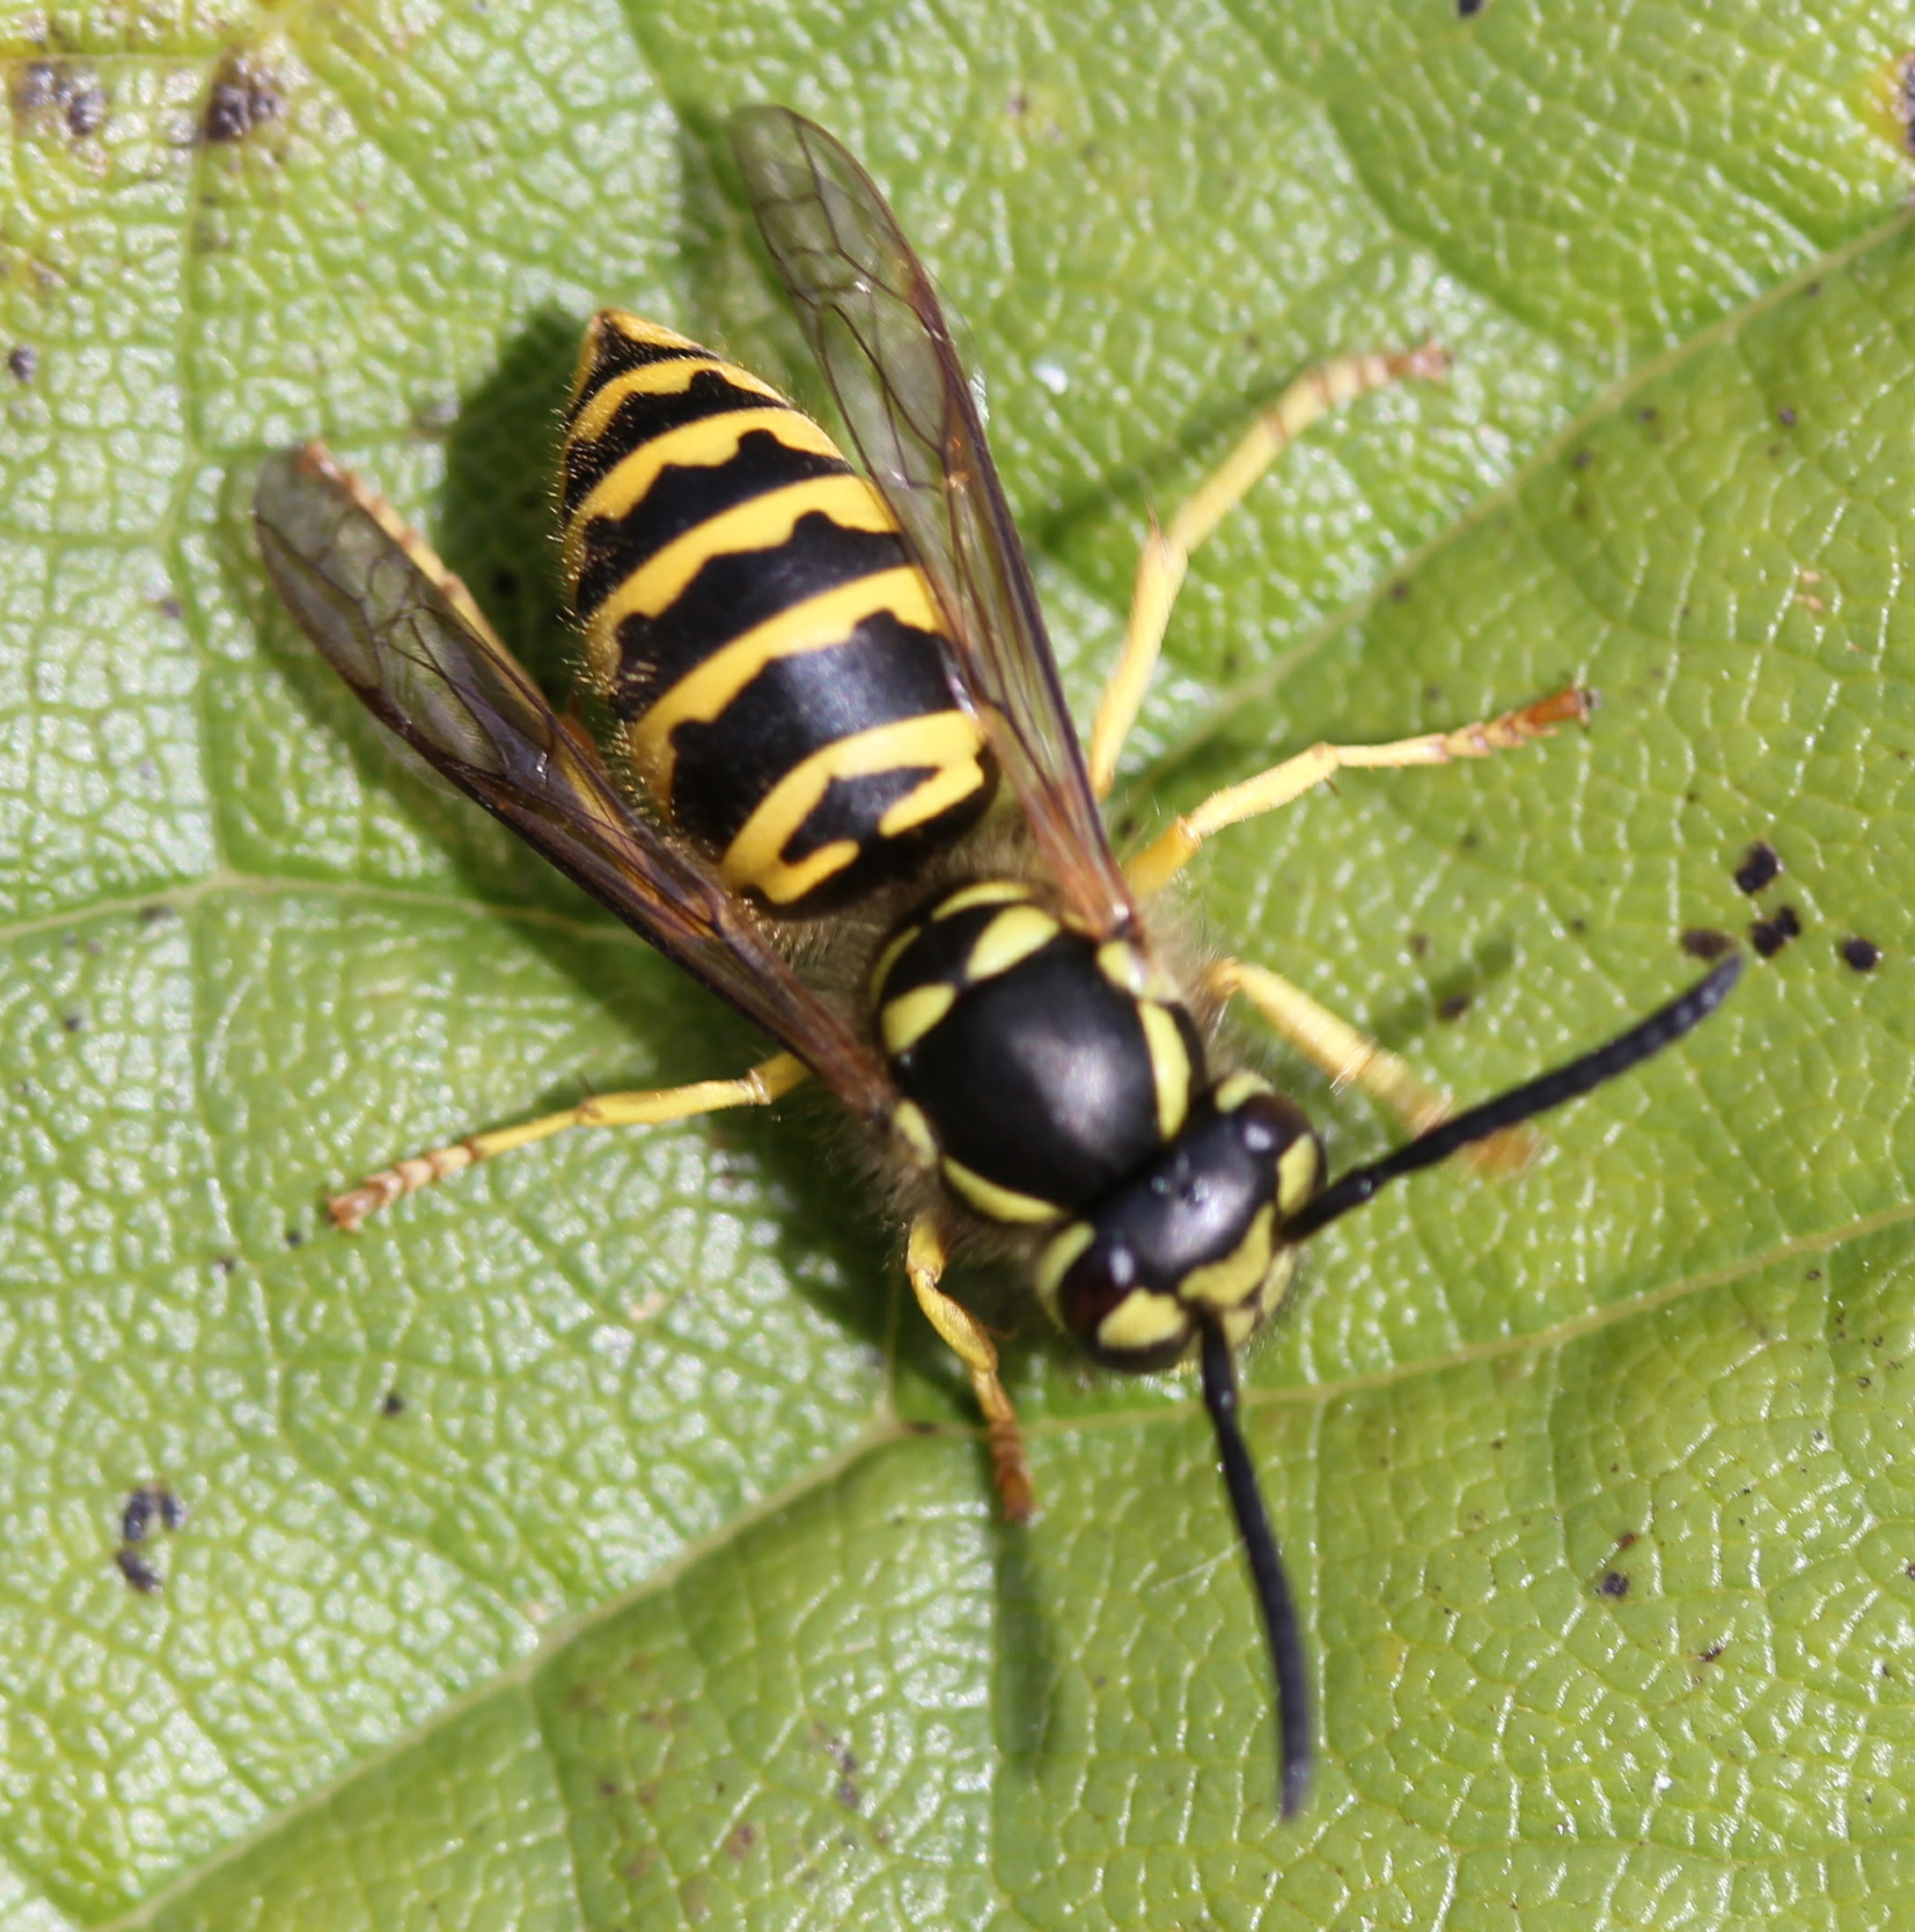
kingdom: Animalia
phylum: Arthropoda
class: Insecta
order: Hymenoptera
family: Vespidae
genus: Vespula
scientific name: Vespula maculifrons
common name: Eastern yellowjacket
